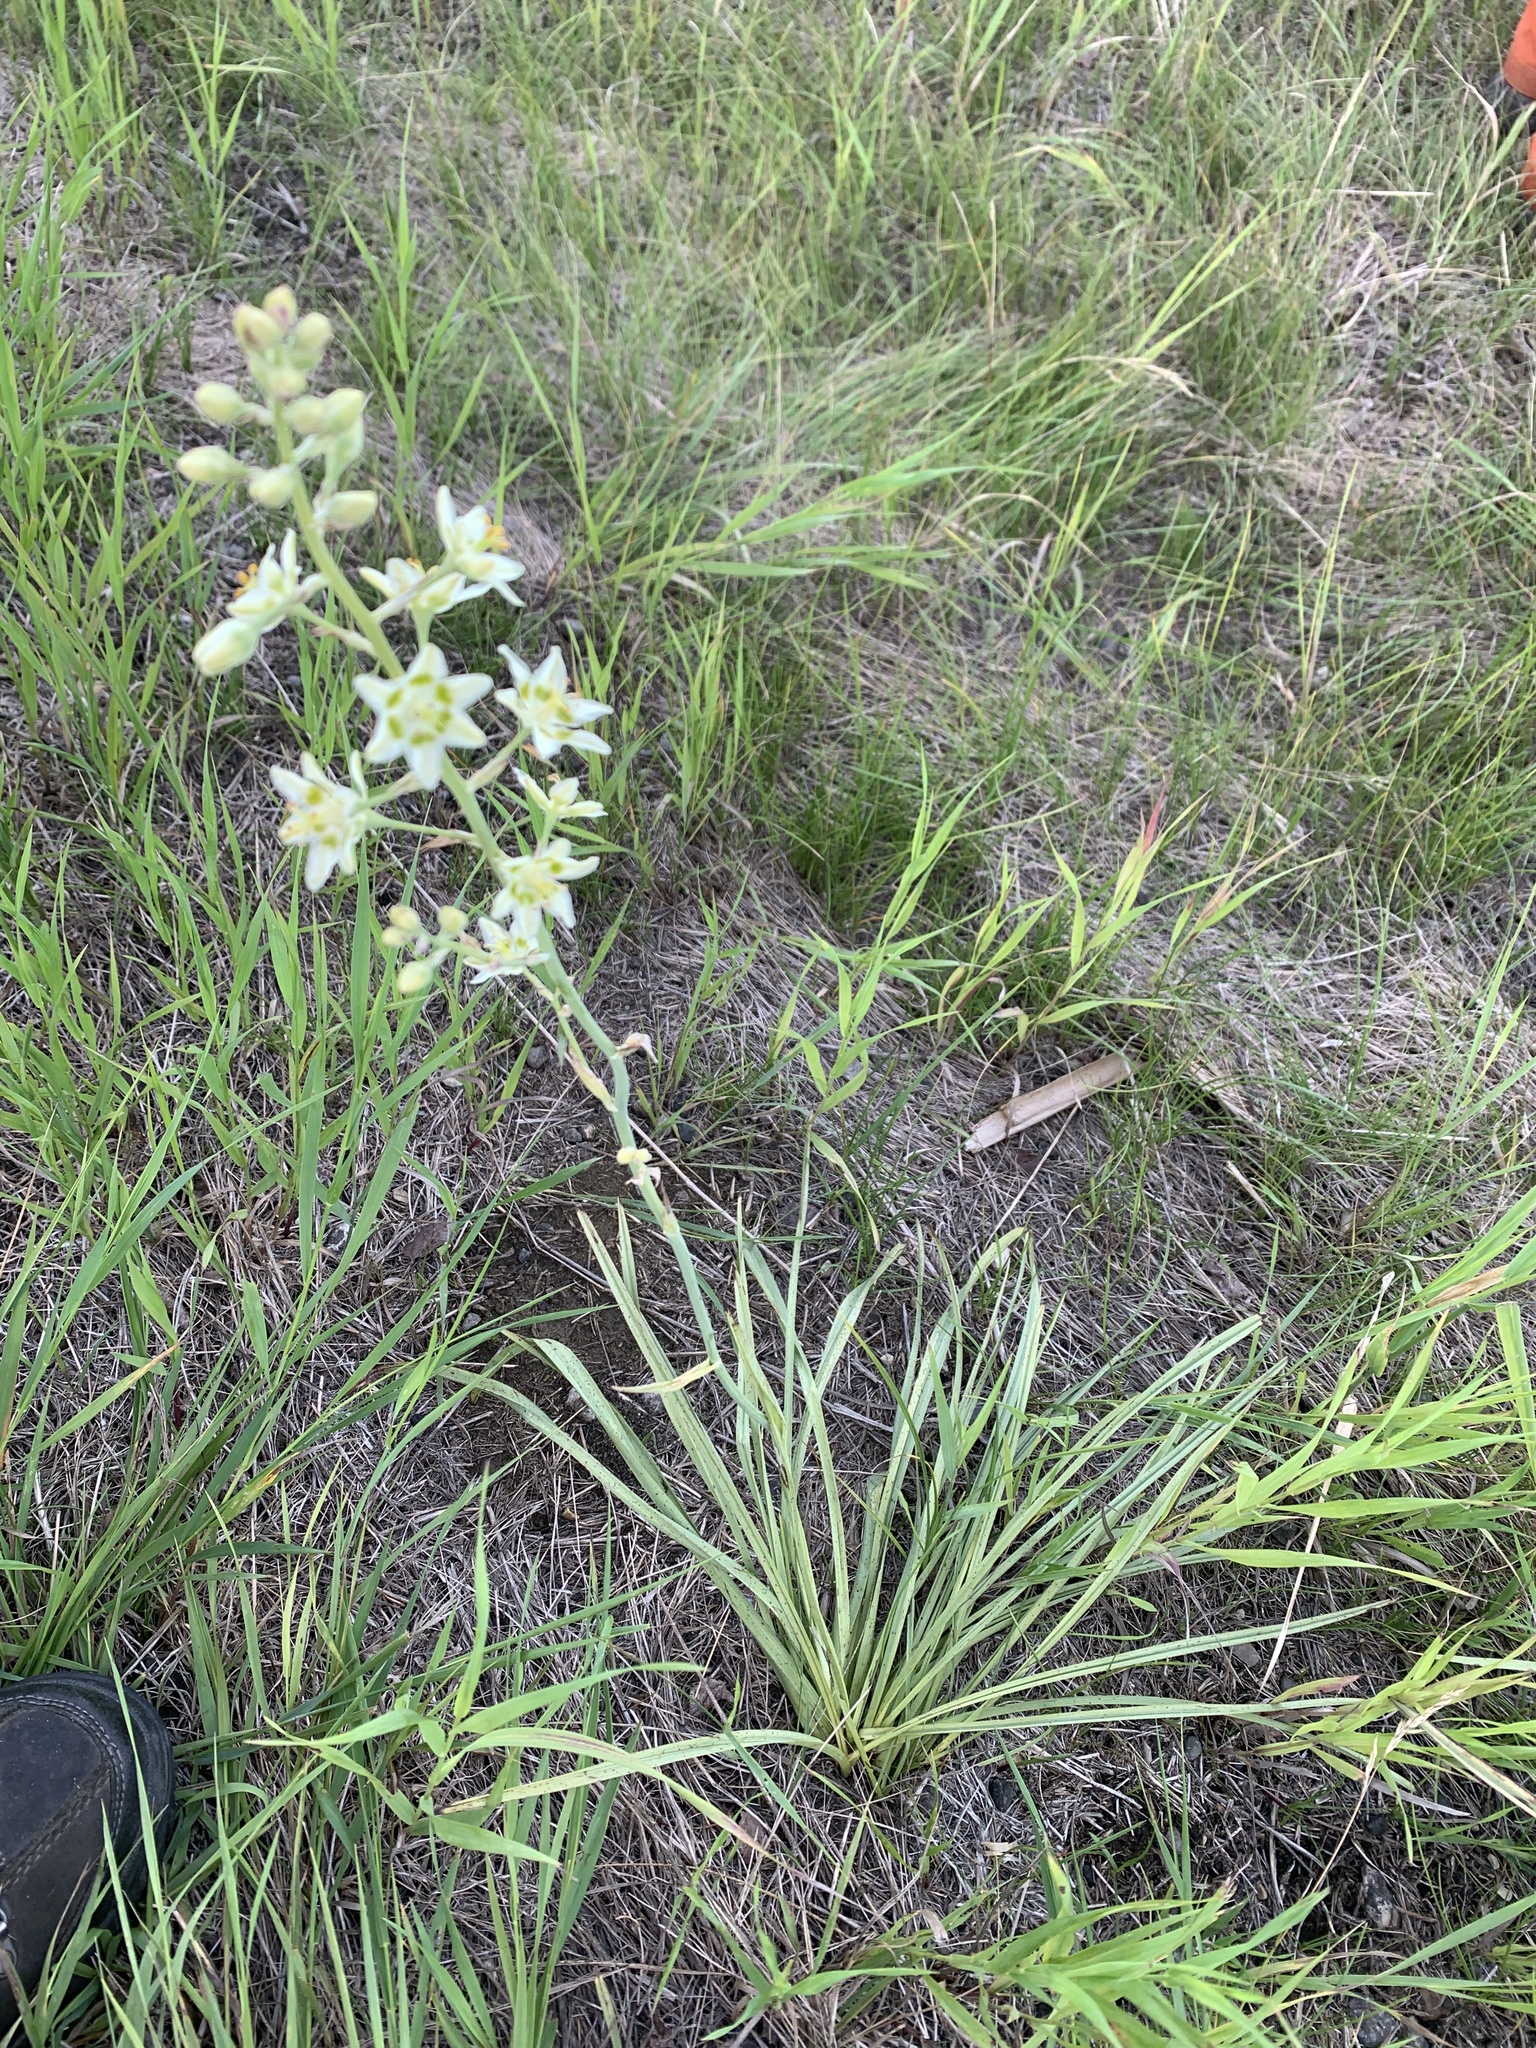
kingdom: Plantae
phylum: Tracheophyta
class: Liliopsida
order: Liliales
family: Melanthiaceae
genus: Anticlea
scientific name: Anticlea elegans
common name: Mountain death camas
